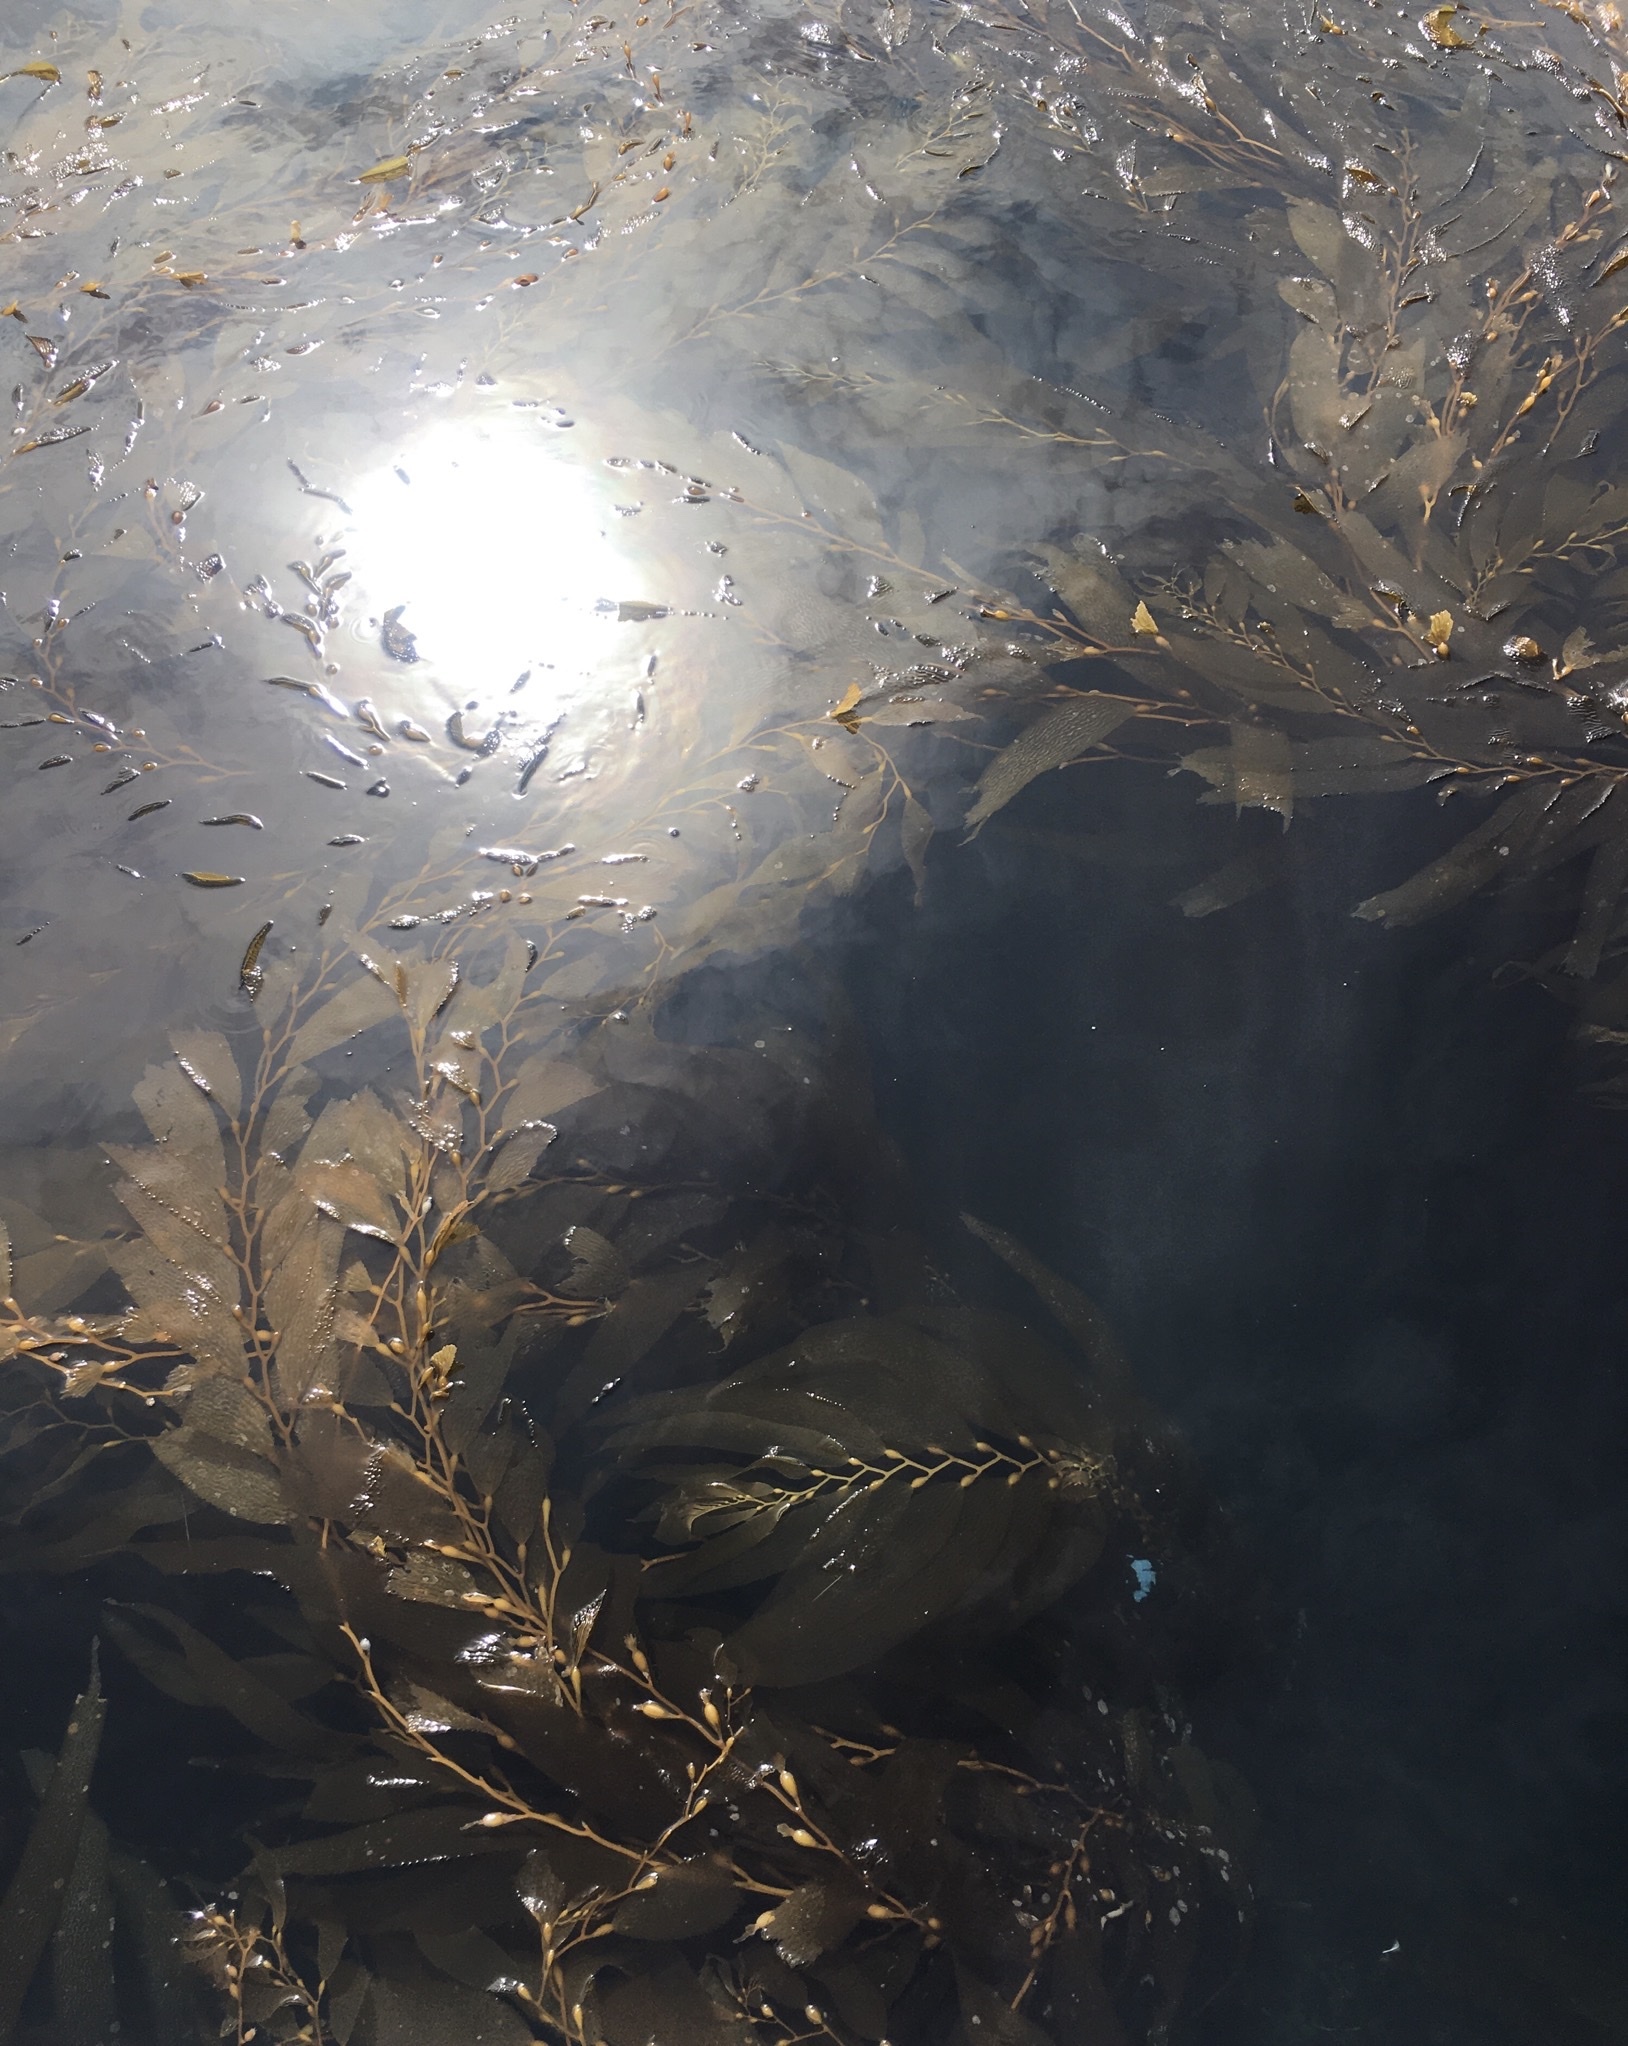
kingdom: Chromista
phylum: Ochrophyta
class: Phaeophyceae
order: Laminariales
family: Laminariaceae
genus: Macrocystis
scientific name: Macrocystis pyrifera
